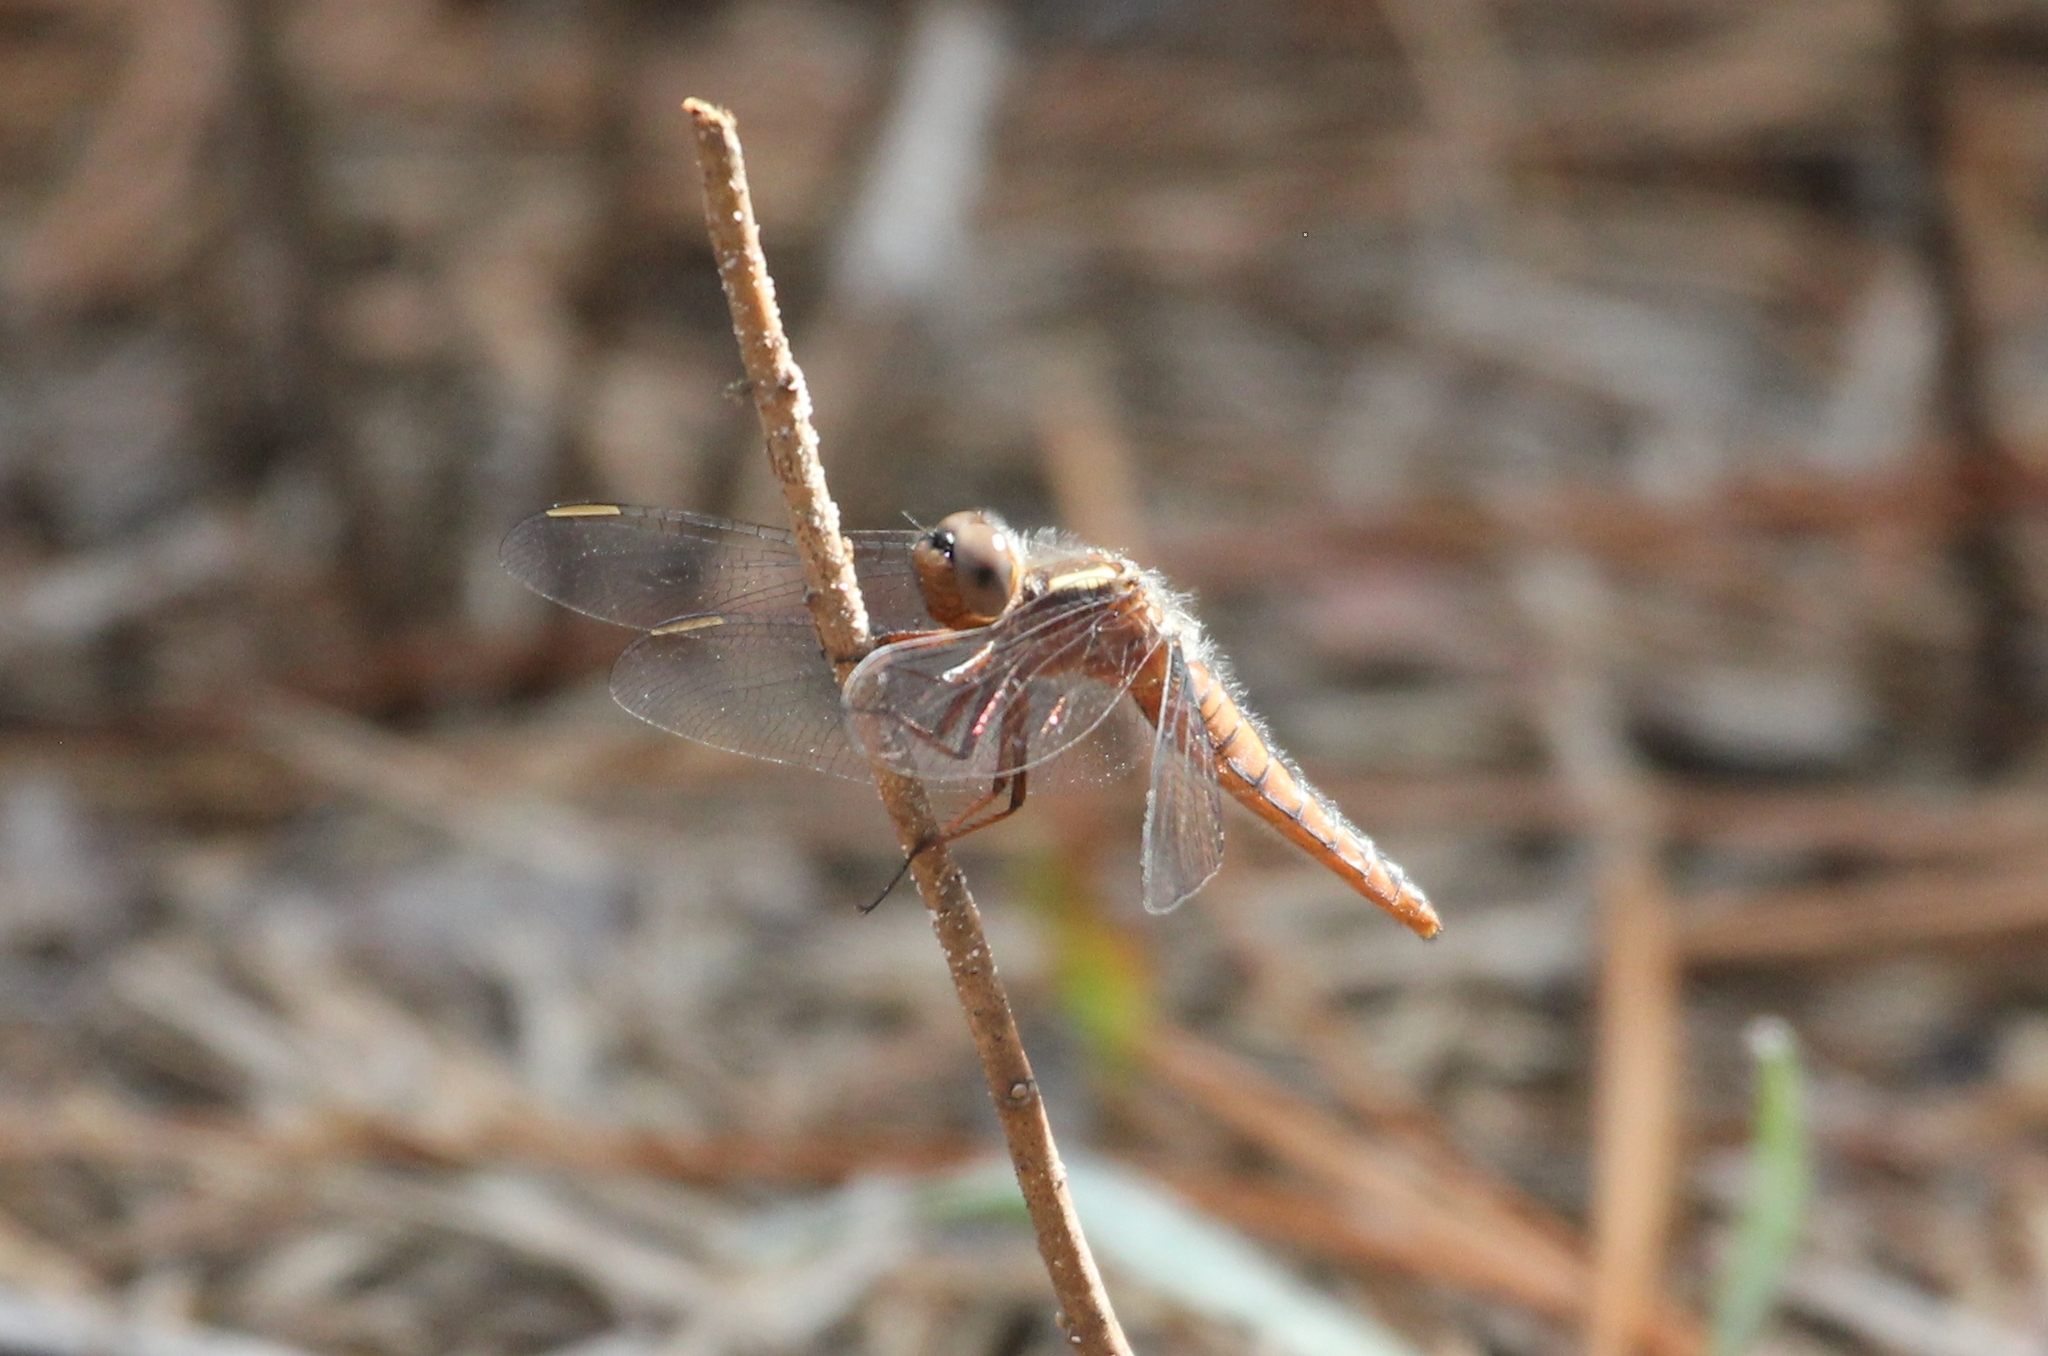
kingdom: Animalia
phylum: Arthropoda
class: Insecta
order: Odonata
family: Libellulidae
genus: Ladona
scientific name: Ladona deplanata
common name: Blue corporal
